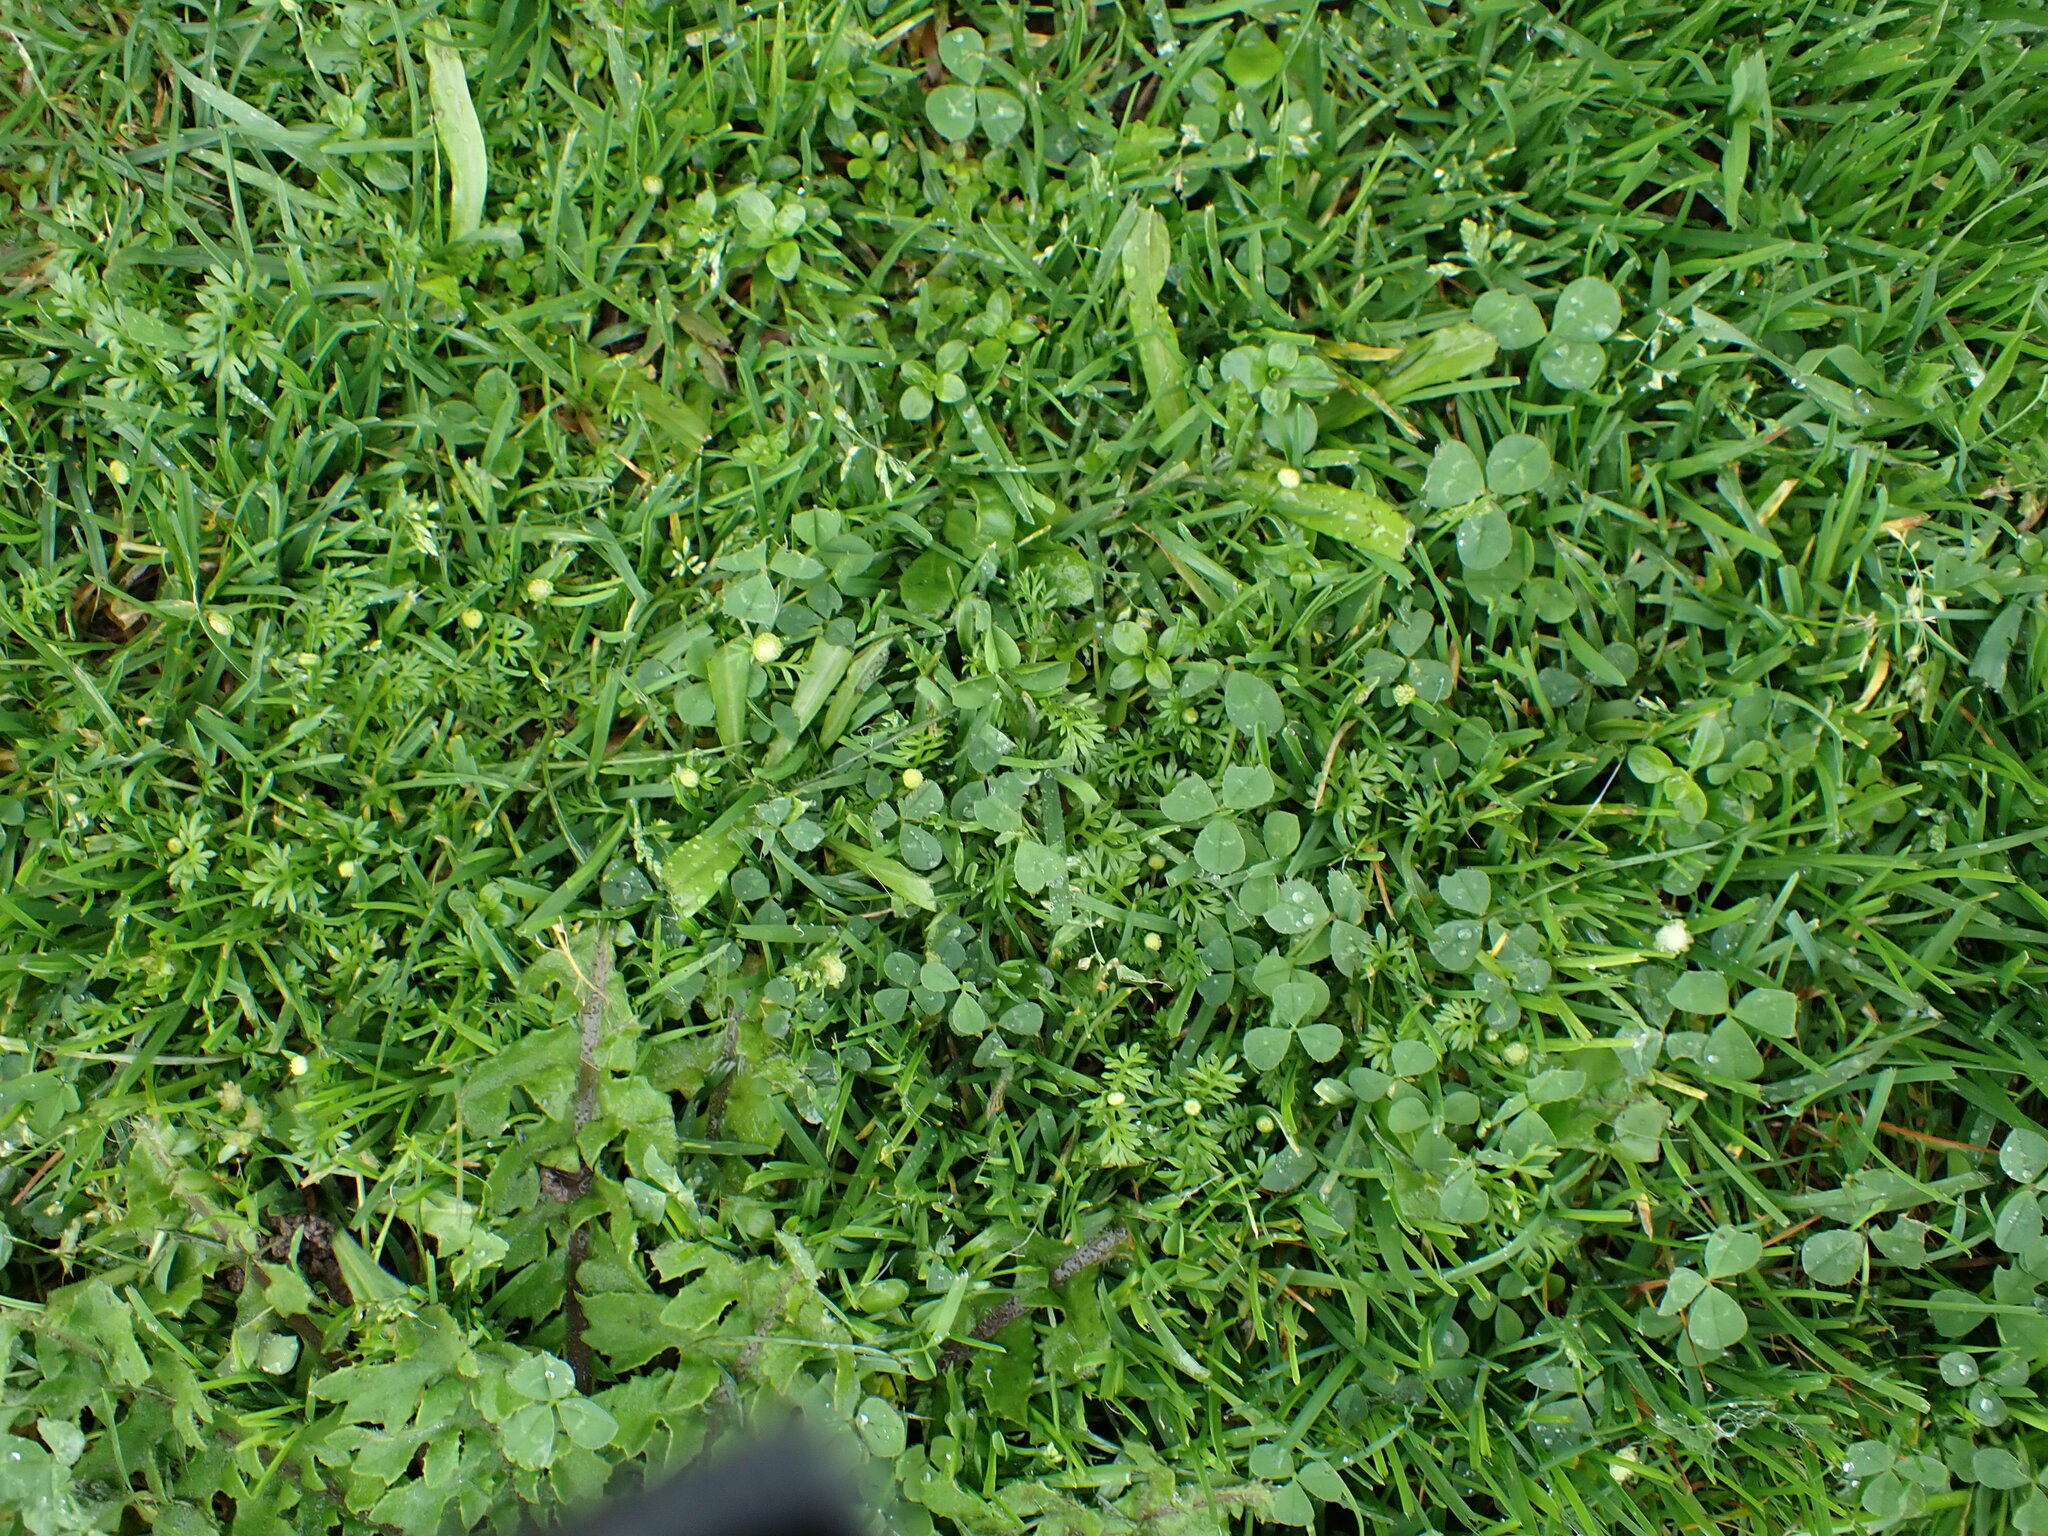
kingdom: Plantae
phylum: Tracheophyta
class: Magnoliopsida
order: Asterales
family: Asteraceae
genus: Cotula
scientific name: Cotula australis
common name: Australian waterbuttons
